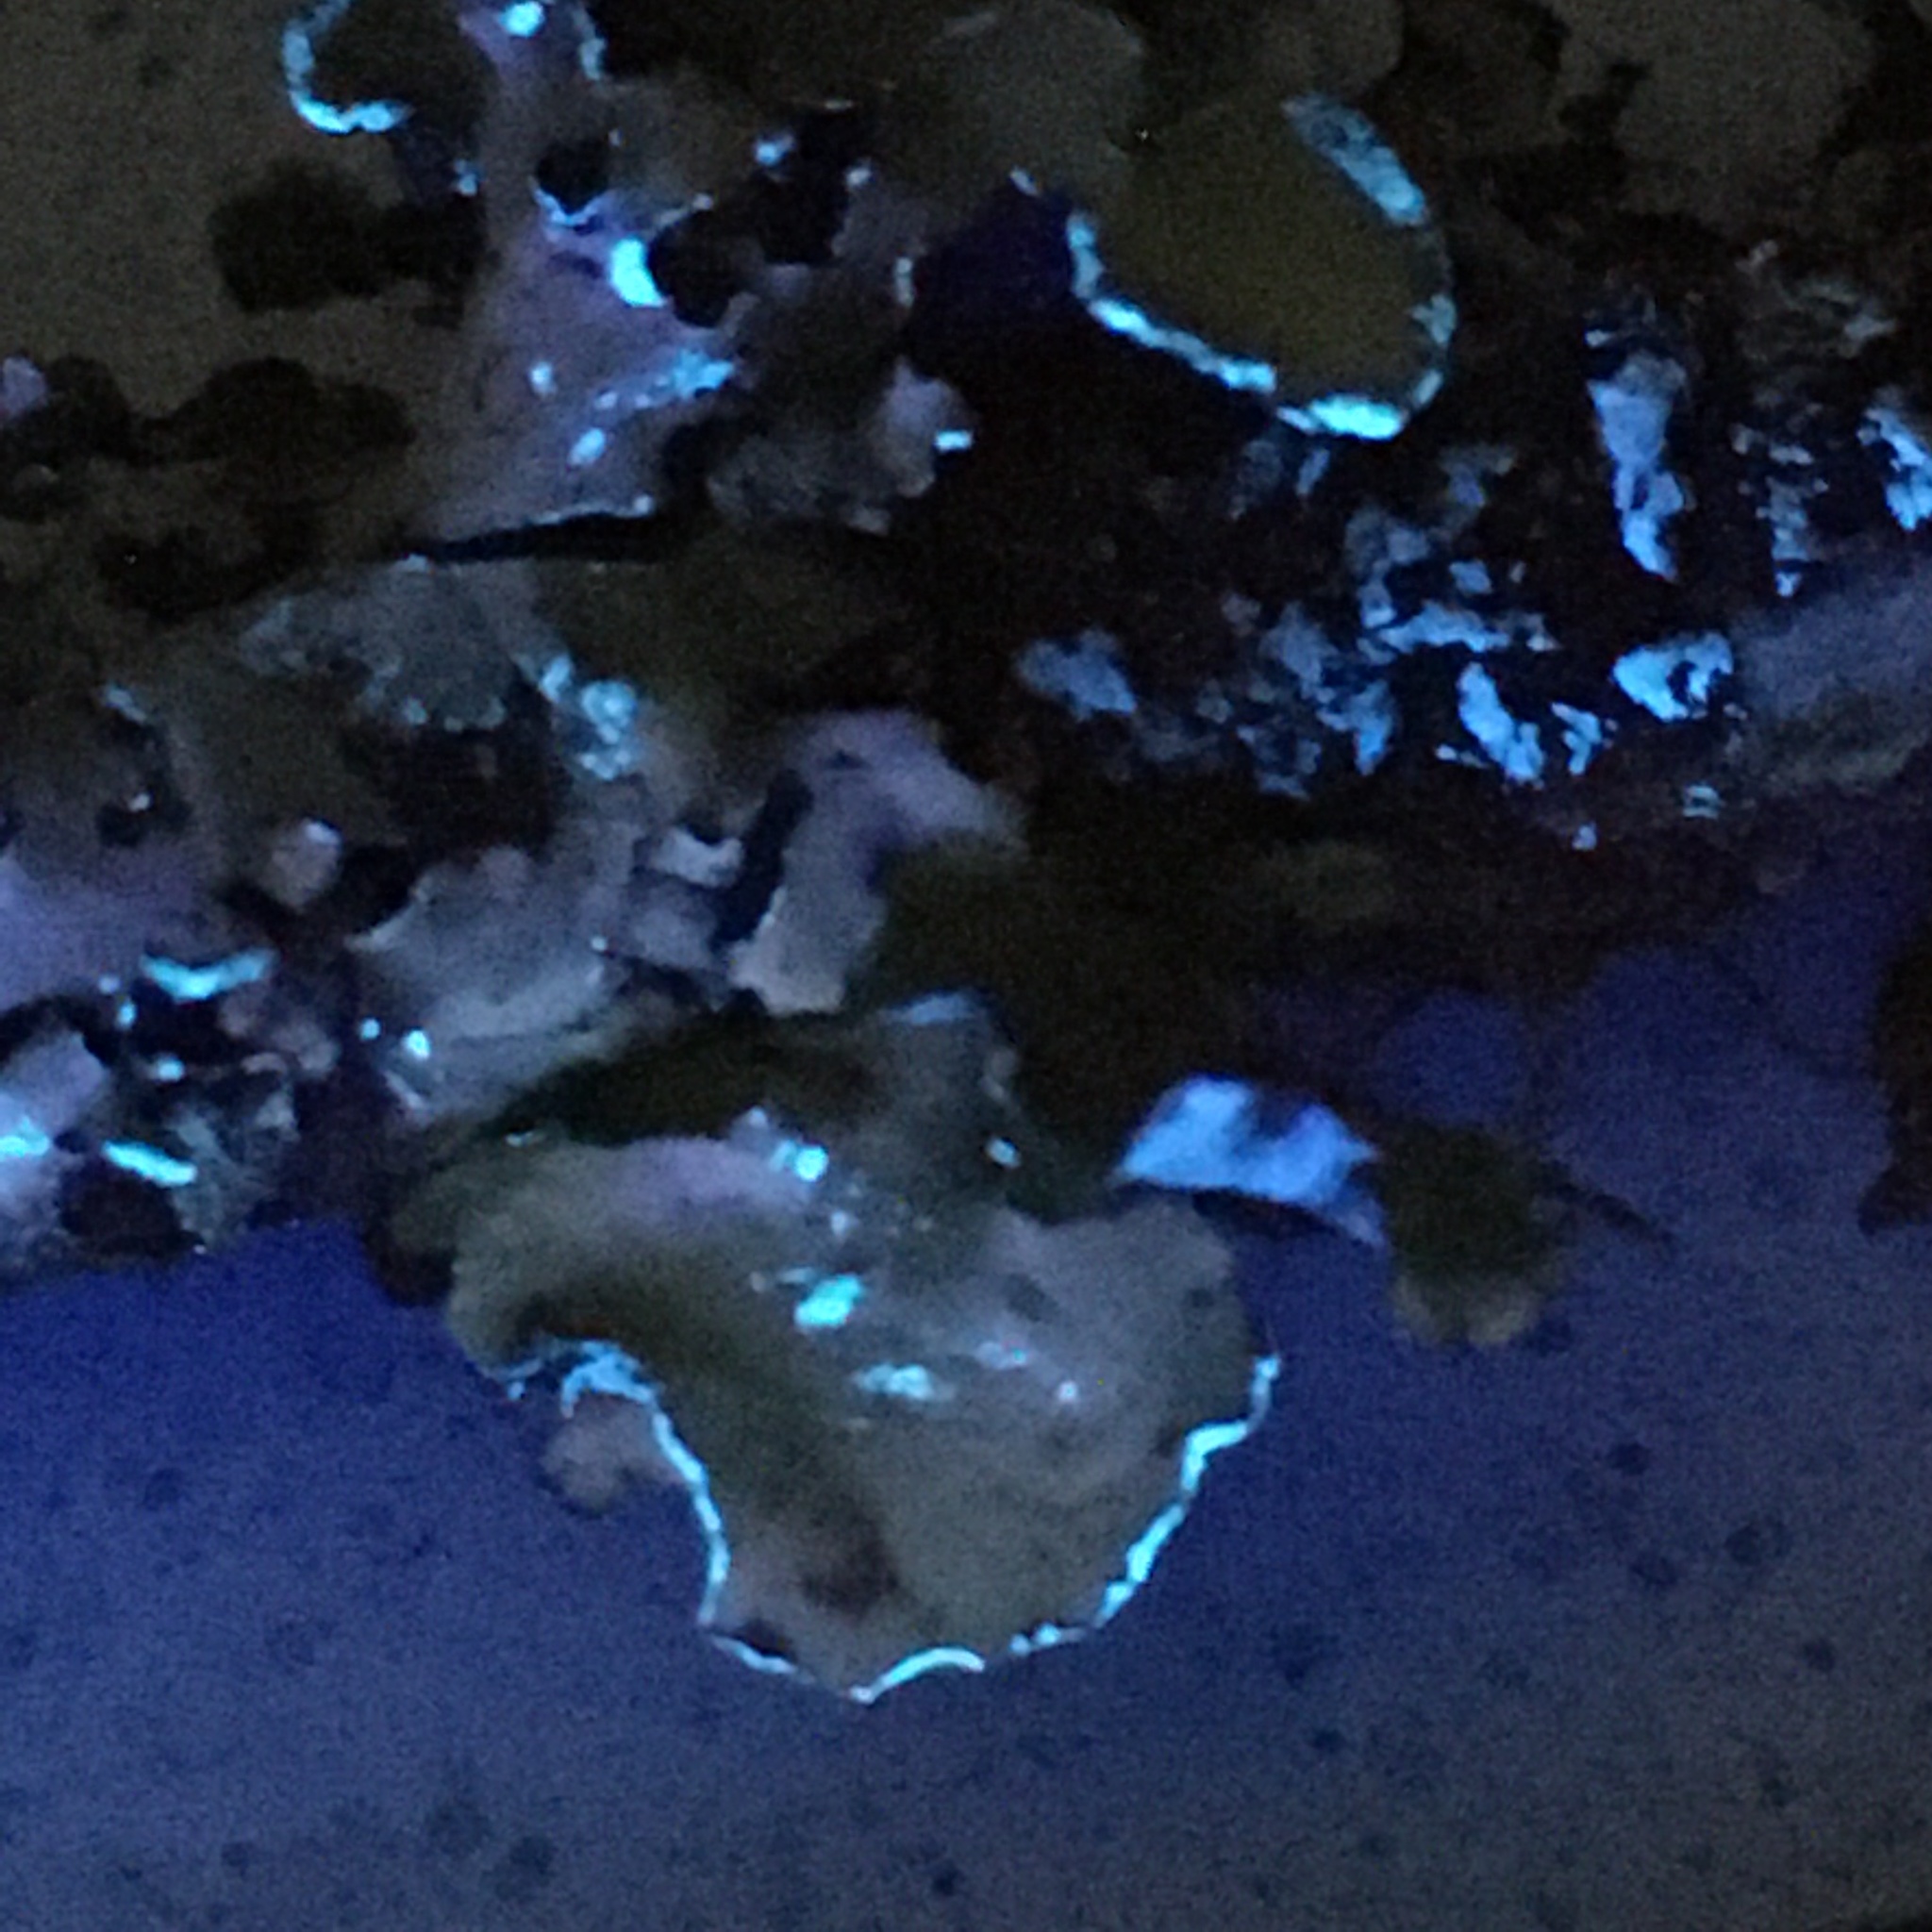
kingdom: Fungi
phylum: Ascomycota
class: Lecanoromycetes
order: Lecanorales
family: Parmeliaceae
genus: Cetrelia
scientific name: Cetrelia cetrarioides
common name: Speckled iceland lichen
